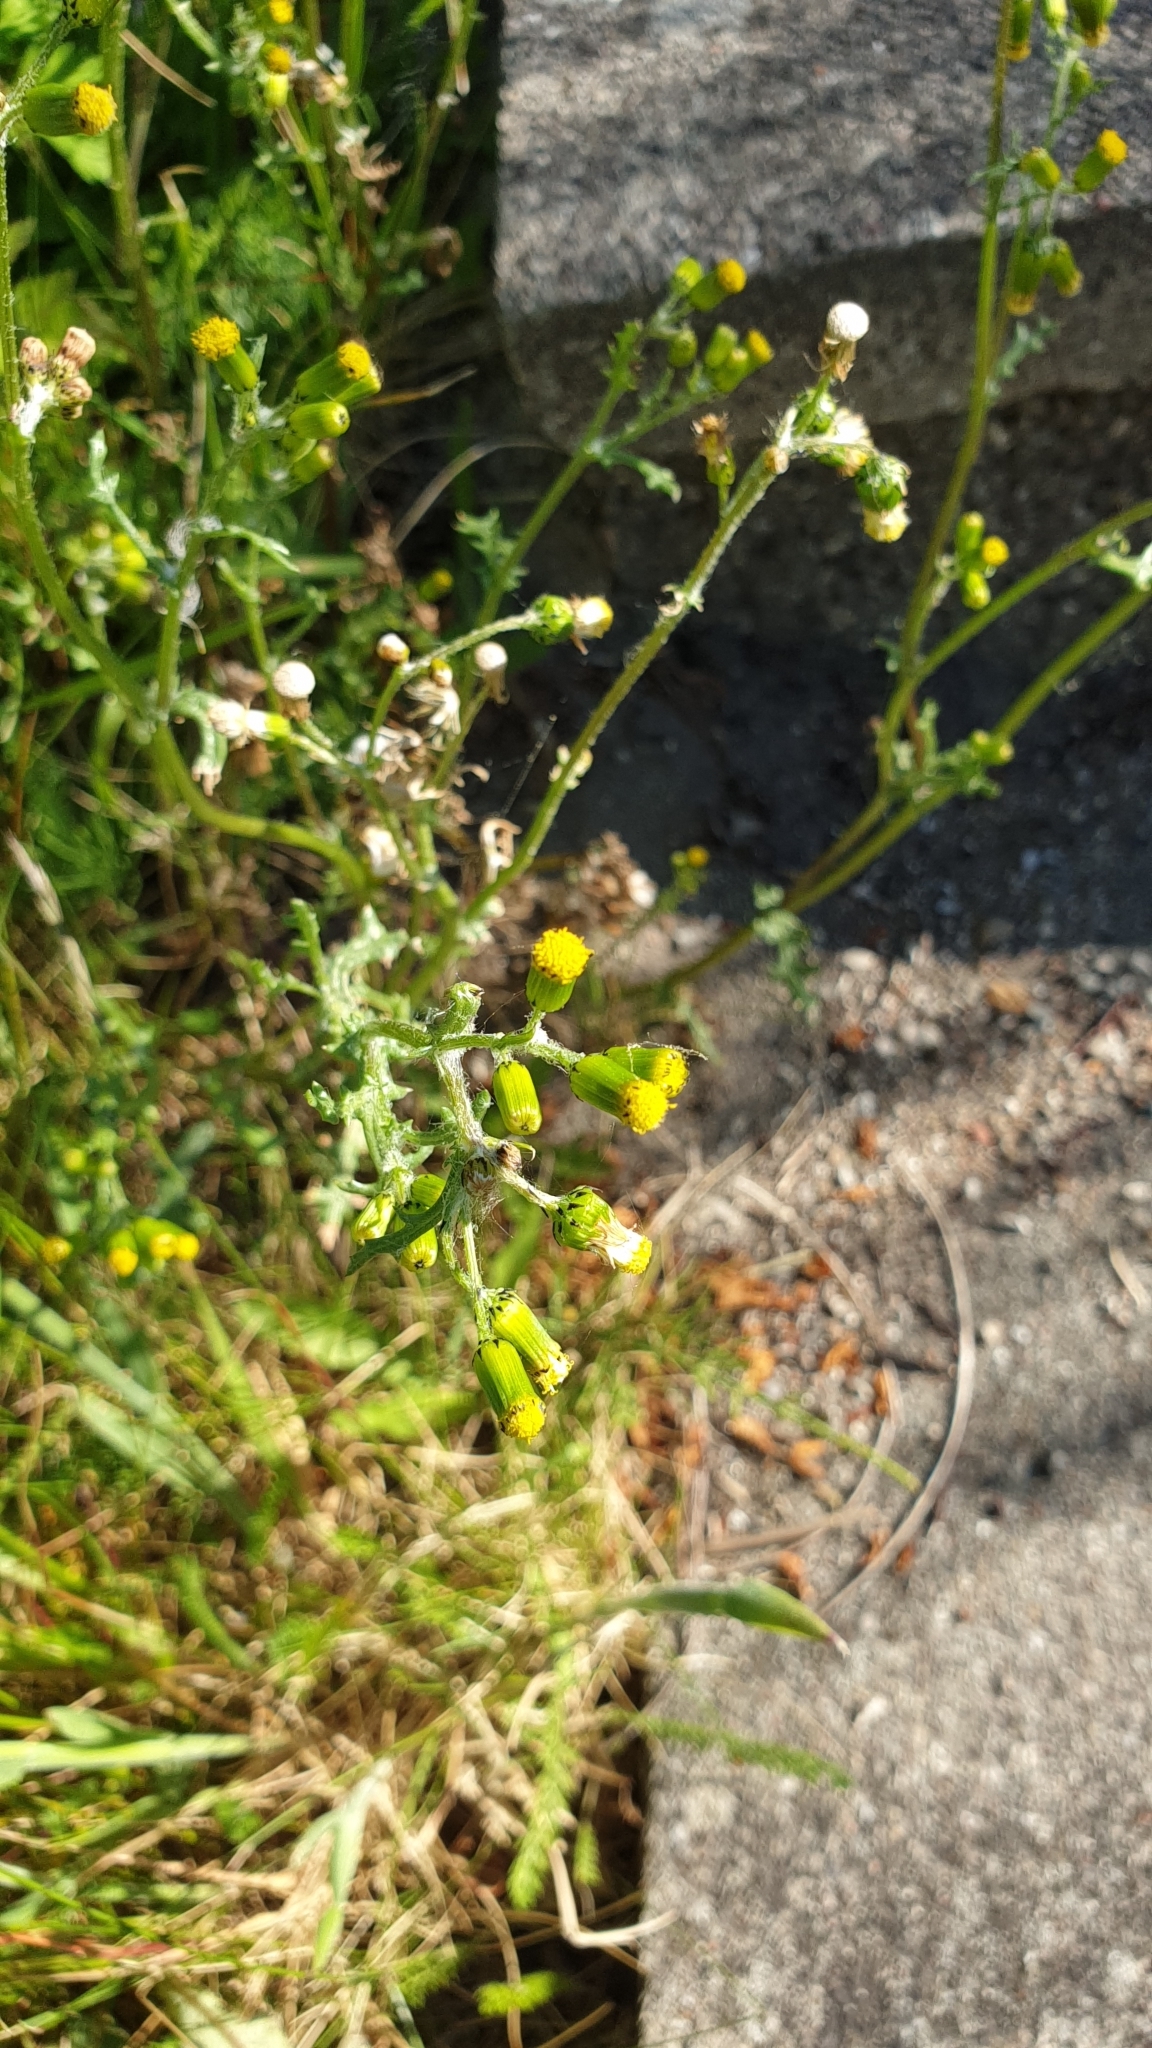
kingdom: Plantae
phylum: Tracheophyta
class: Magnoliopsida
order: Asterales
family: Asteraceae
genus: Senecio
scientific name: Senecio vulgaris
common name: Old-man-in-the-spring
